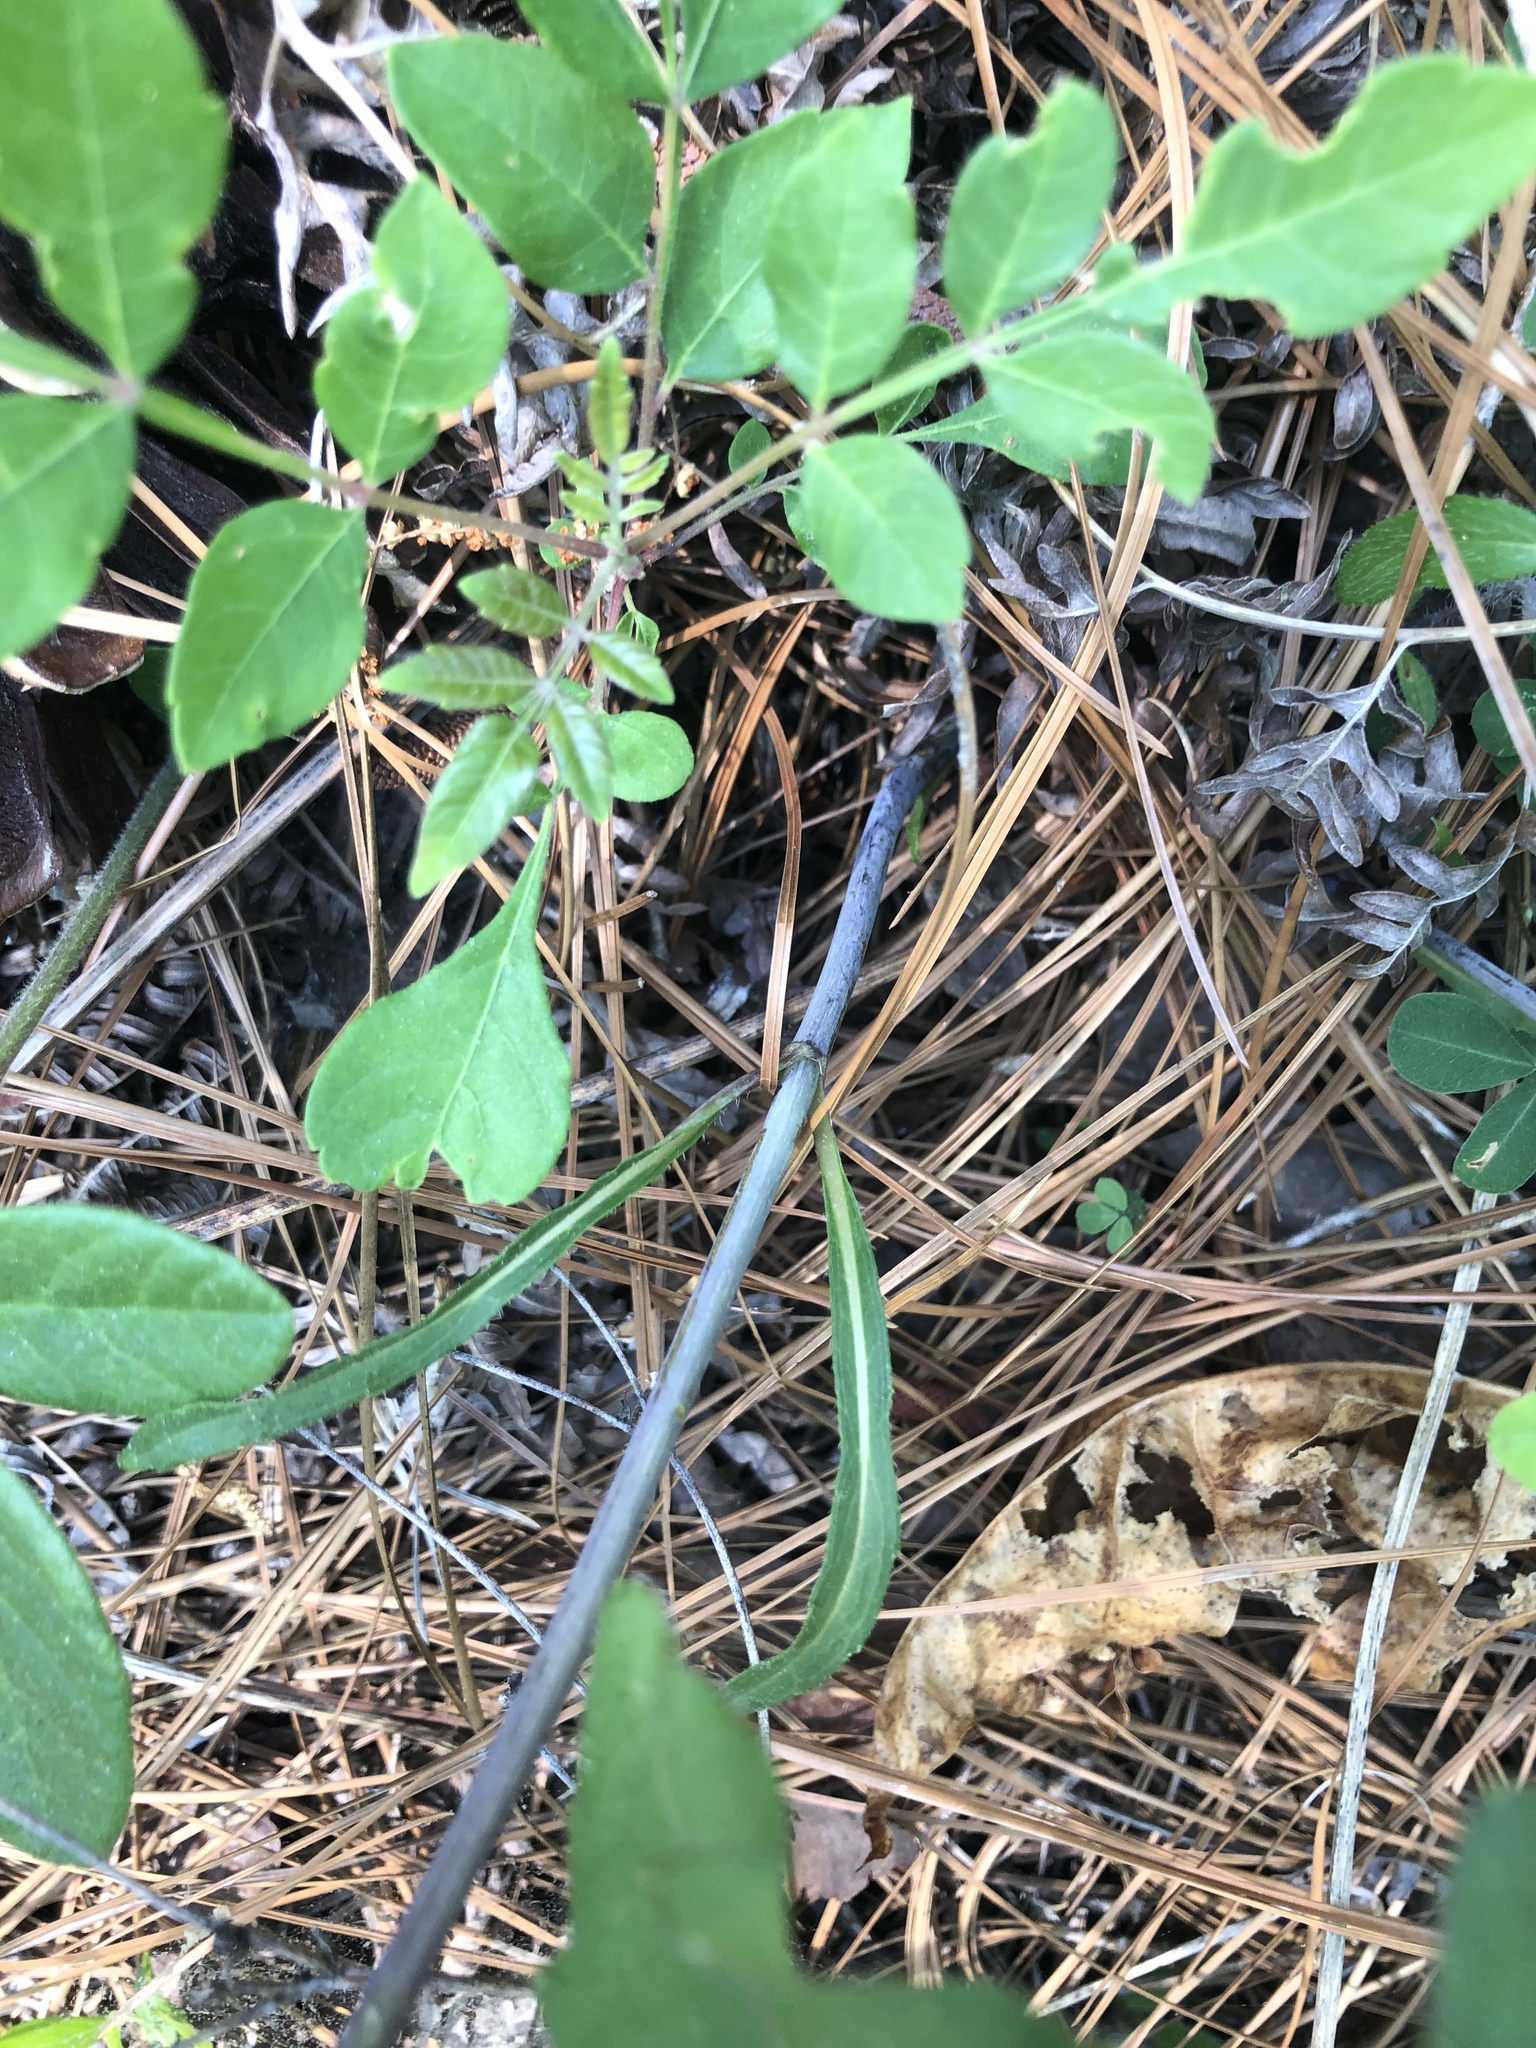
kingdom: Plantae
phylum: Tracheophyta
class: Magnoliopsida
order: Asterales
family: Asteraceae
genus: Helianthus
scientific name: Helianthus laevigatus
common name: Smooth sunflower
